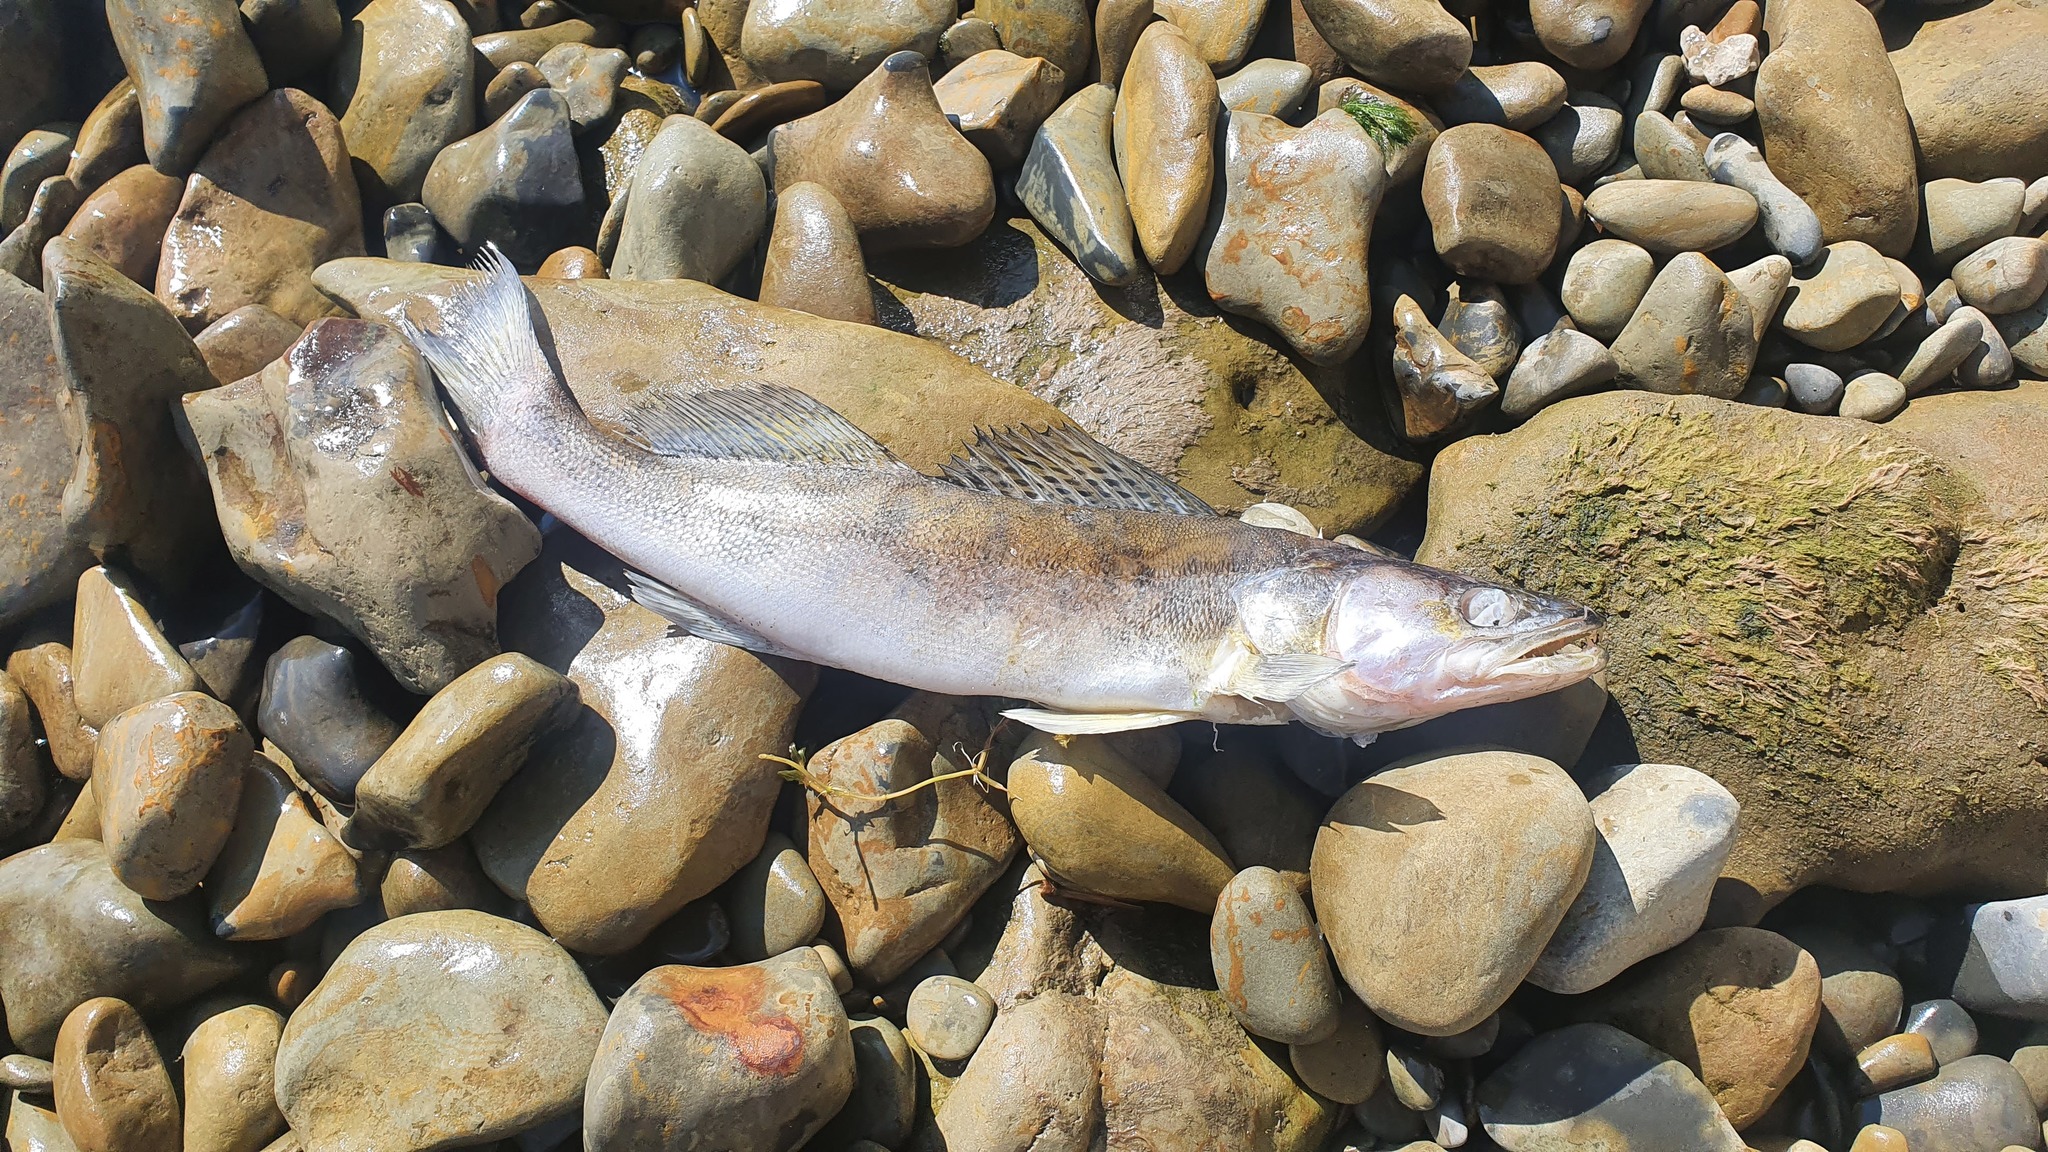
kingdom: Animalia
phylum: Chordata
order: Perciformes
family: Percidae
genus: Sander
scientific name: Sander lucioperca
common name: Pikeperch
